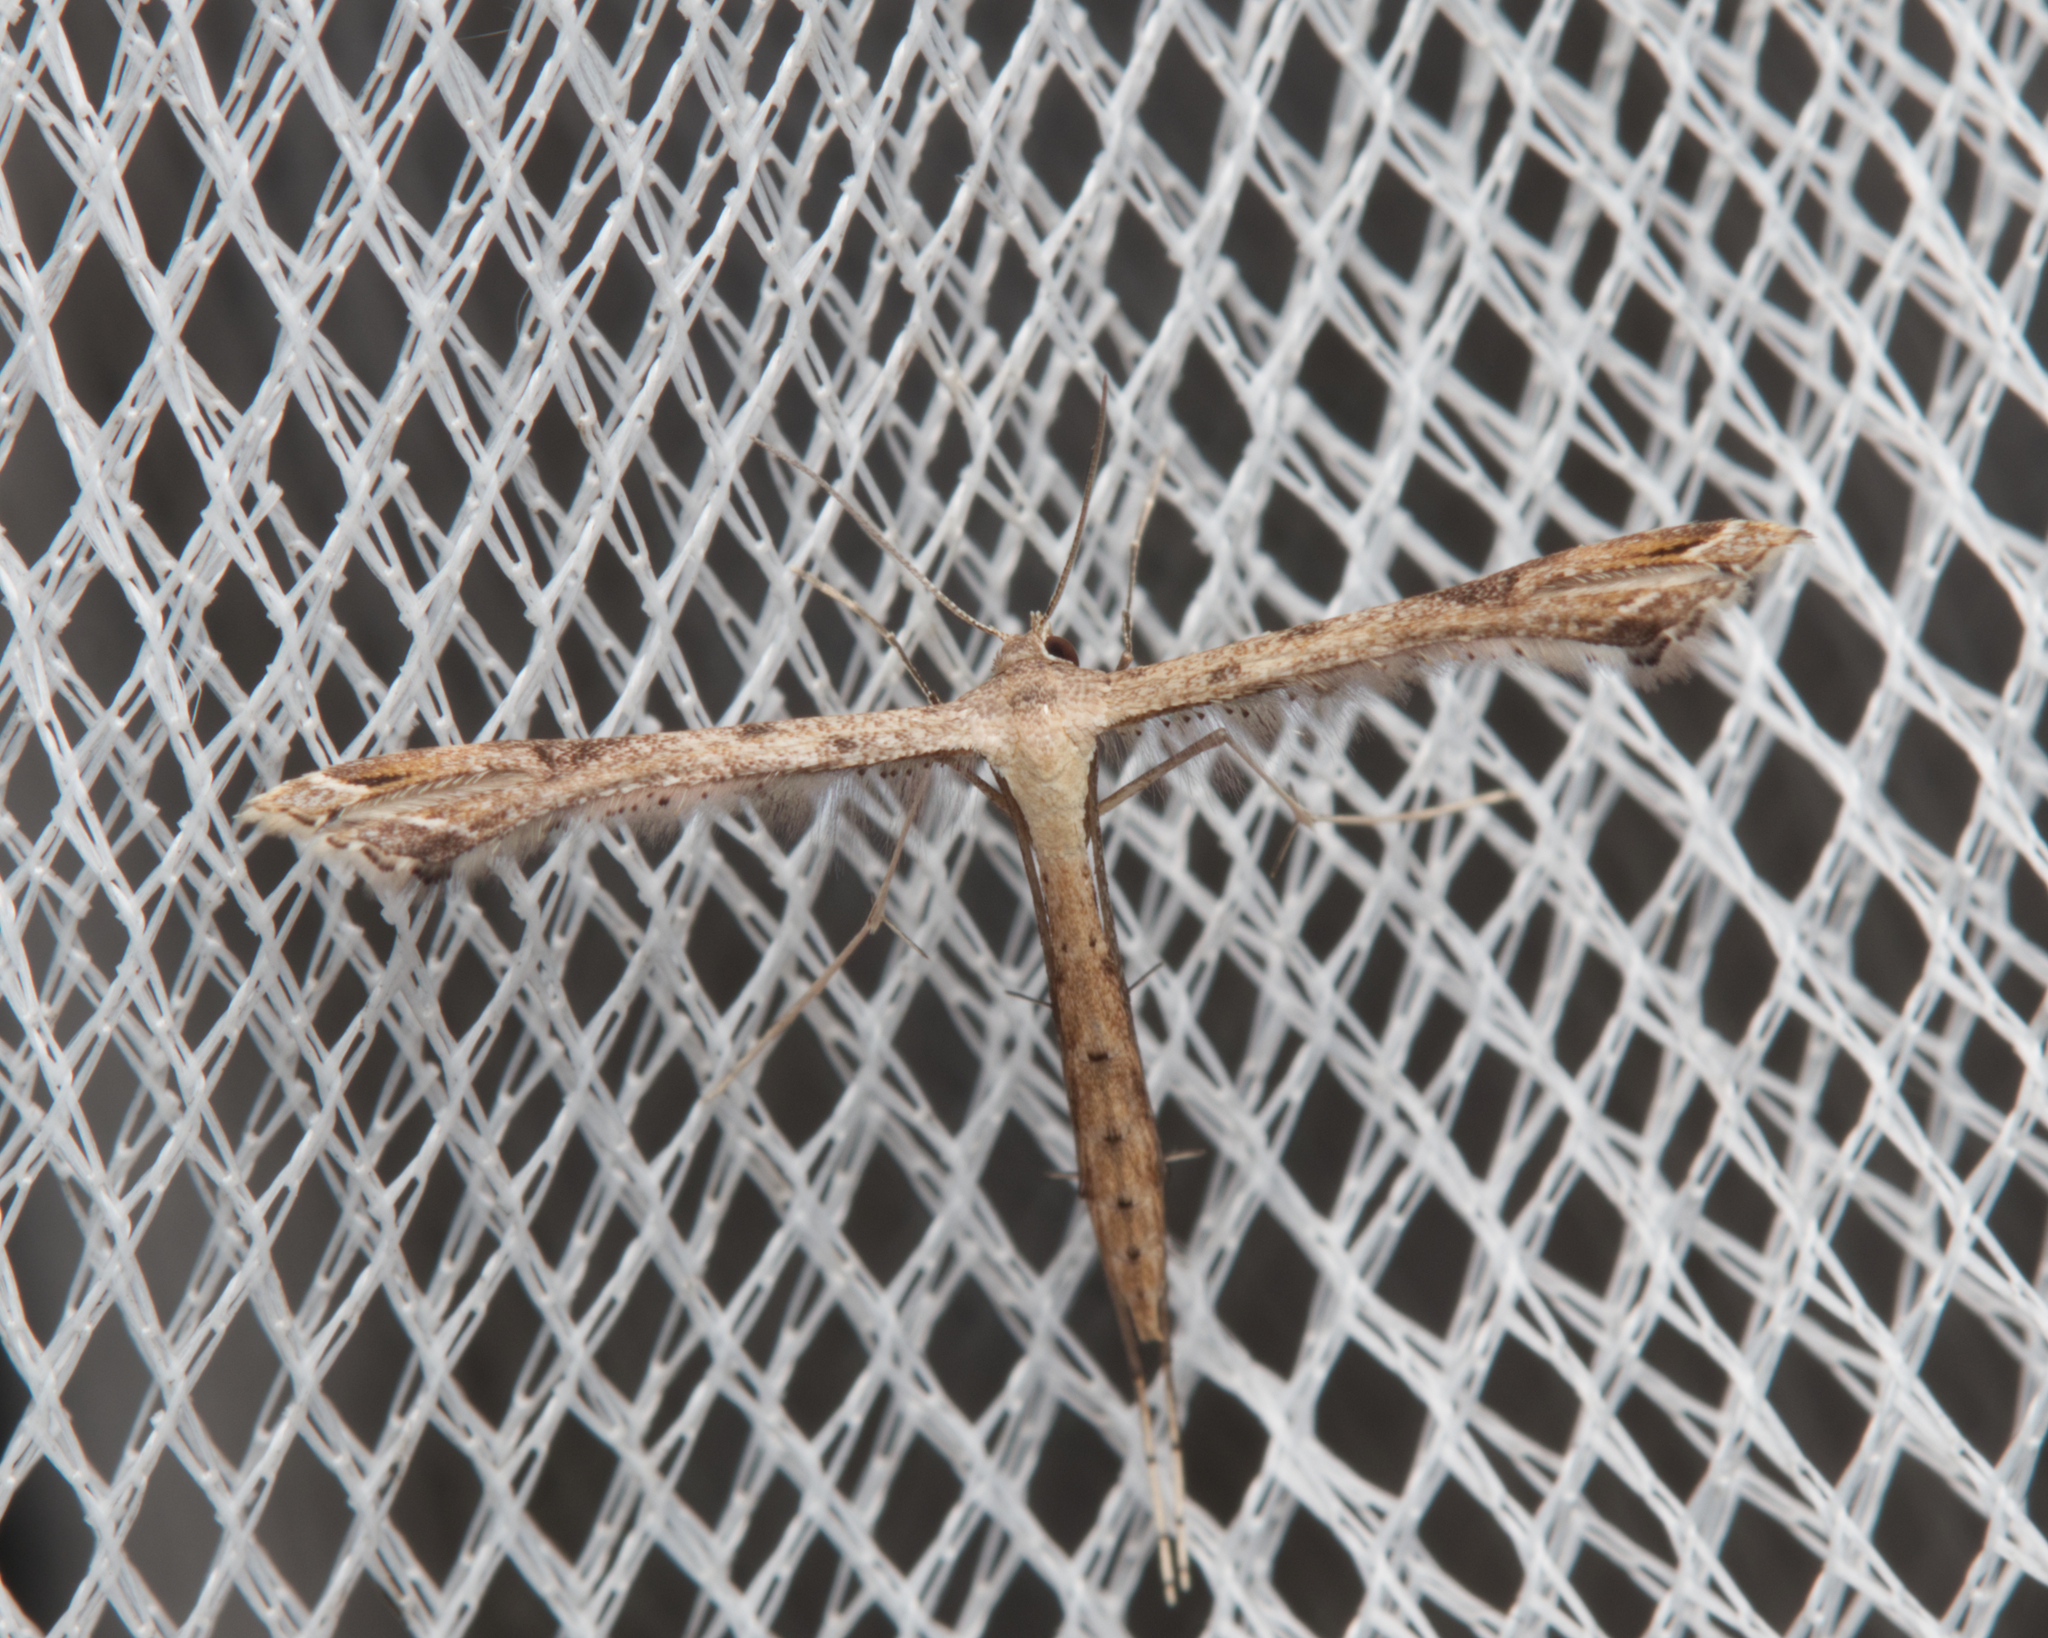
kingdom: Animalia
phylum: Arthropoda
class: Insecta
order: Lepidoptera
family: Pterophoridae
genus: Stenoptilodes
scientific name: Stenoptilodes taprobanes
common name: Moth
